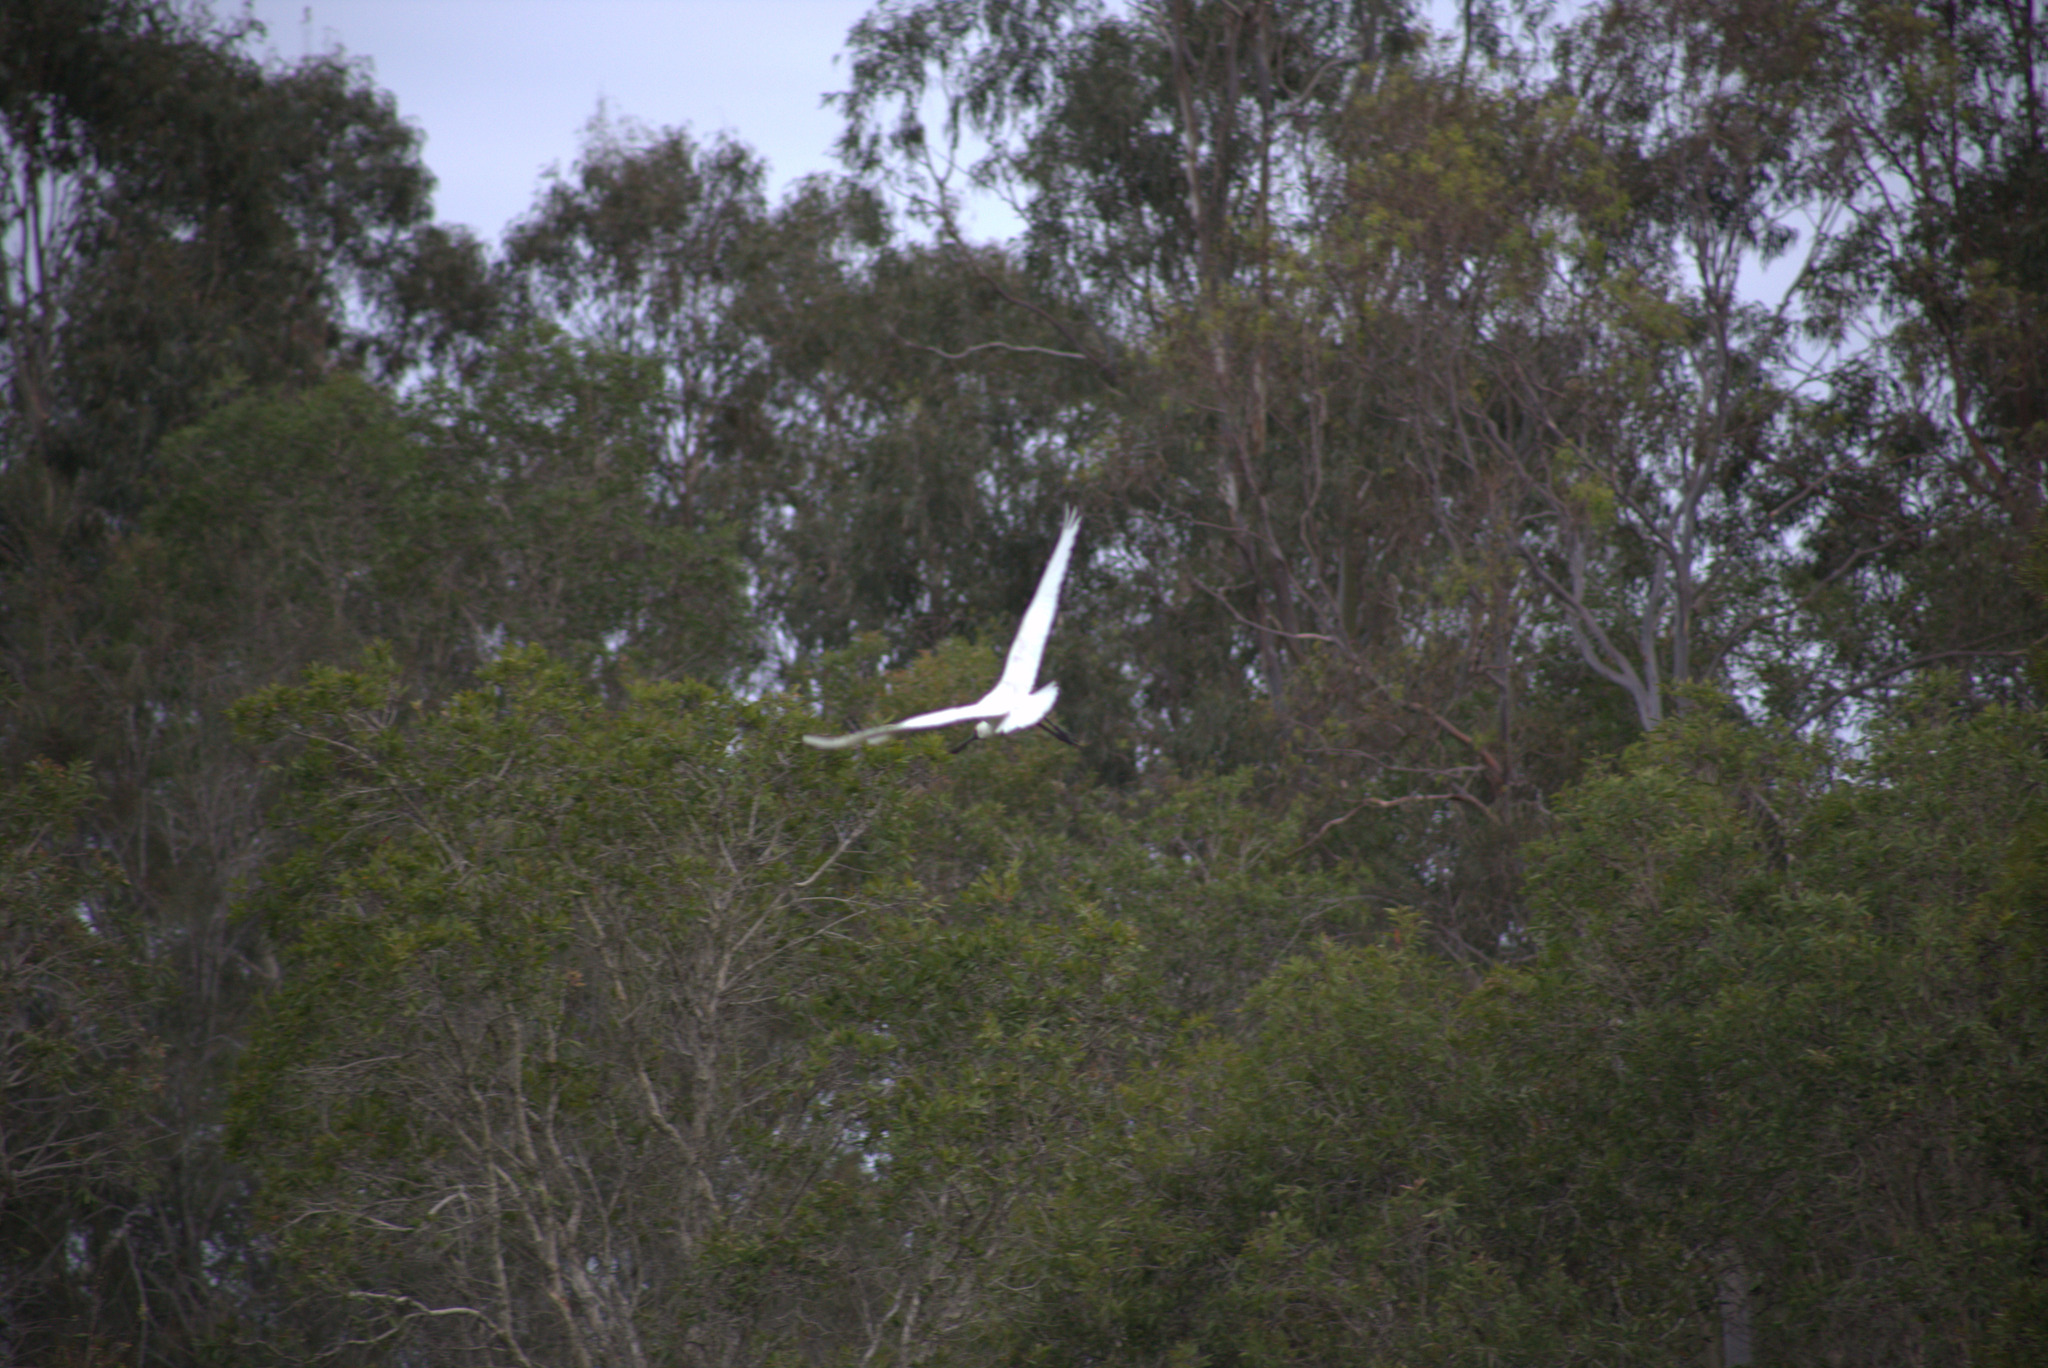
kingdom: Animalia
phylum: Chordata
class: Aves
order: Pelecaniformes
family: Threskiornithidae
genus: Platalea
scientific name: Platalea regia
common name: Royal spoonbill
